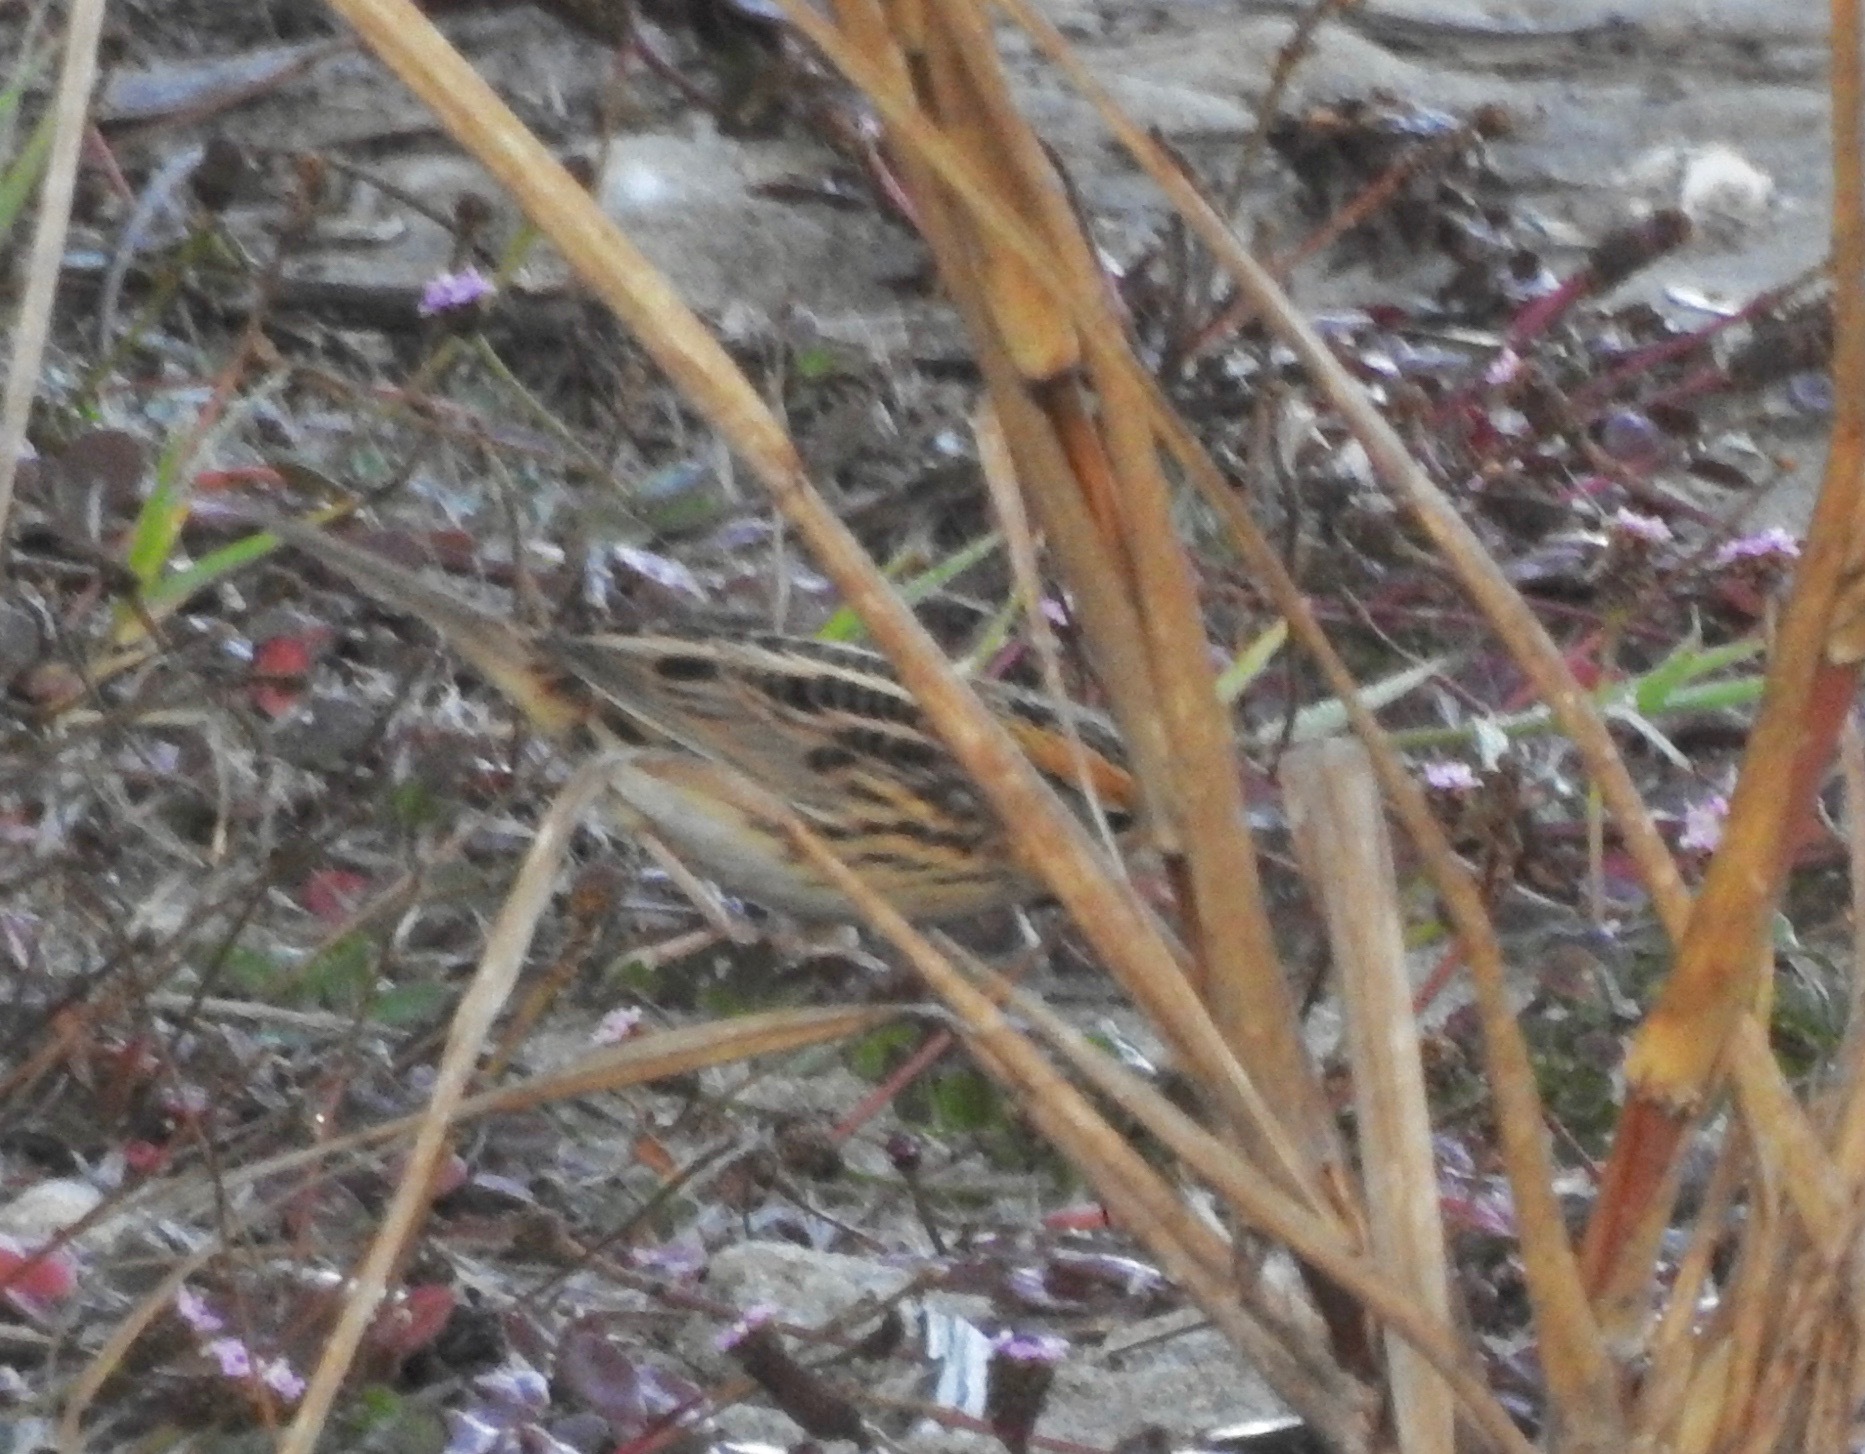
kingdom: Animalia
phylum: Chordata
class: Aves
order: Passeriformes
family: Passerellidae
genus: Ammospiza
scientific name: Ammospiza leconteii
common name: Le conte's sparrow
